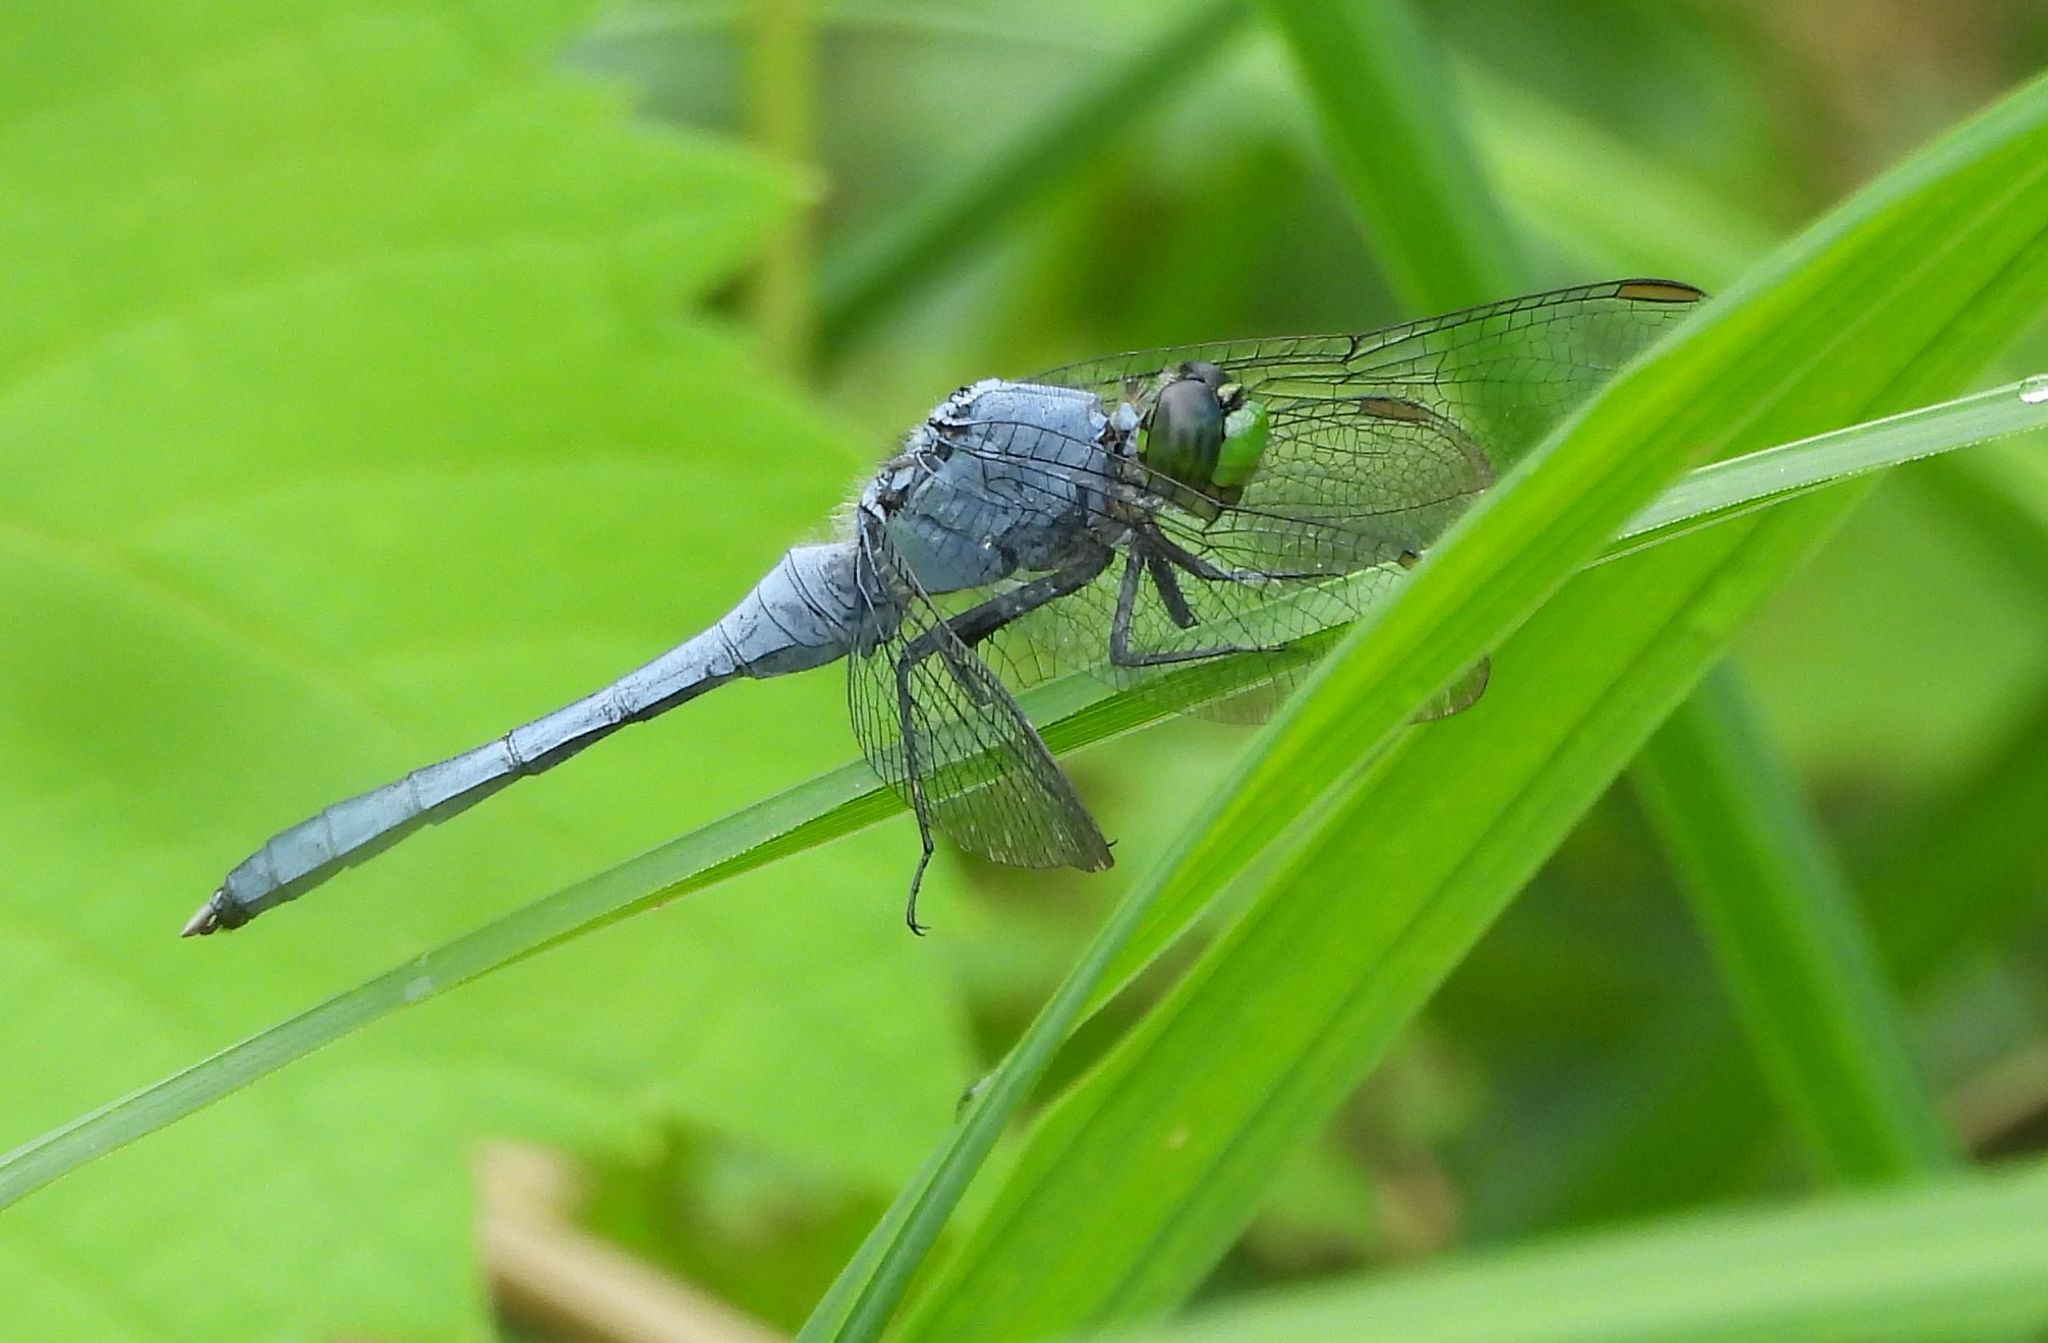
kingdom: Animalia
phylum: Arthropoda
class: Insecta
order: Odonata
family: Libellulidae
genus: Erythemis
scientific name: Erythemis simplicicollis
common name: Eastern pondhawk
